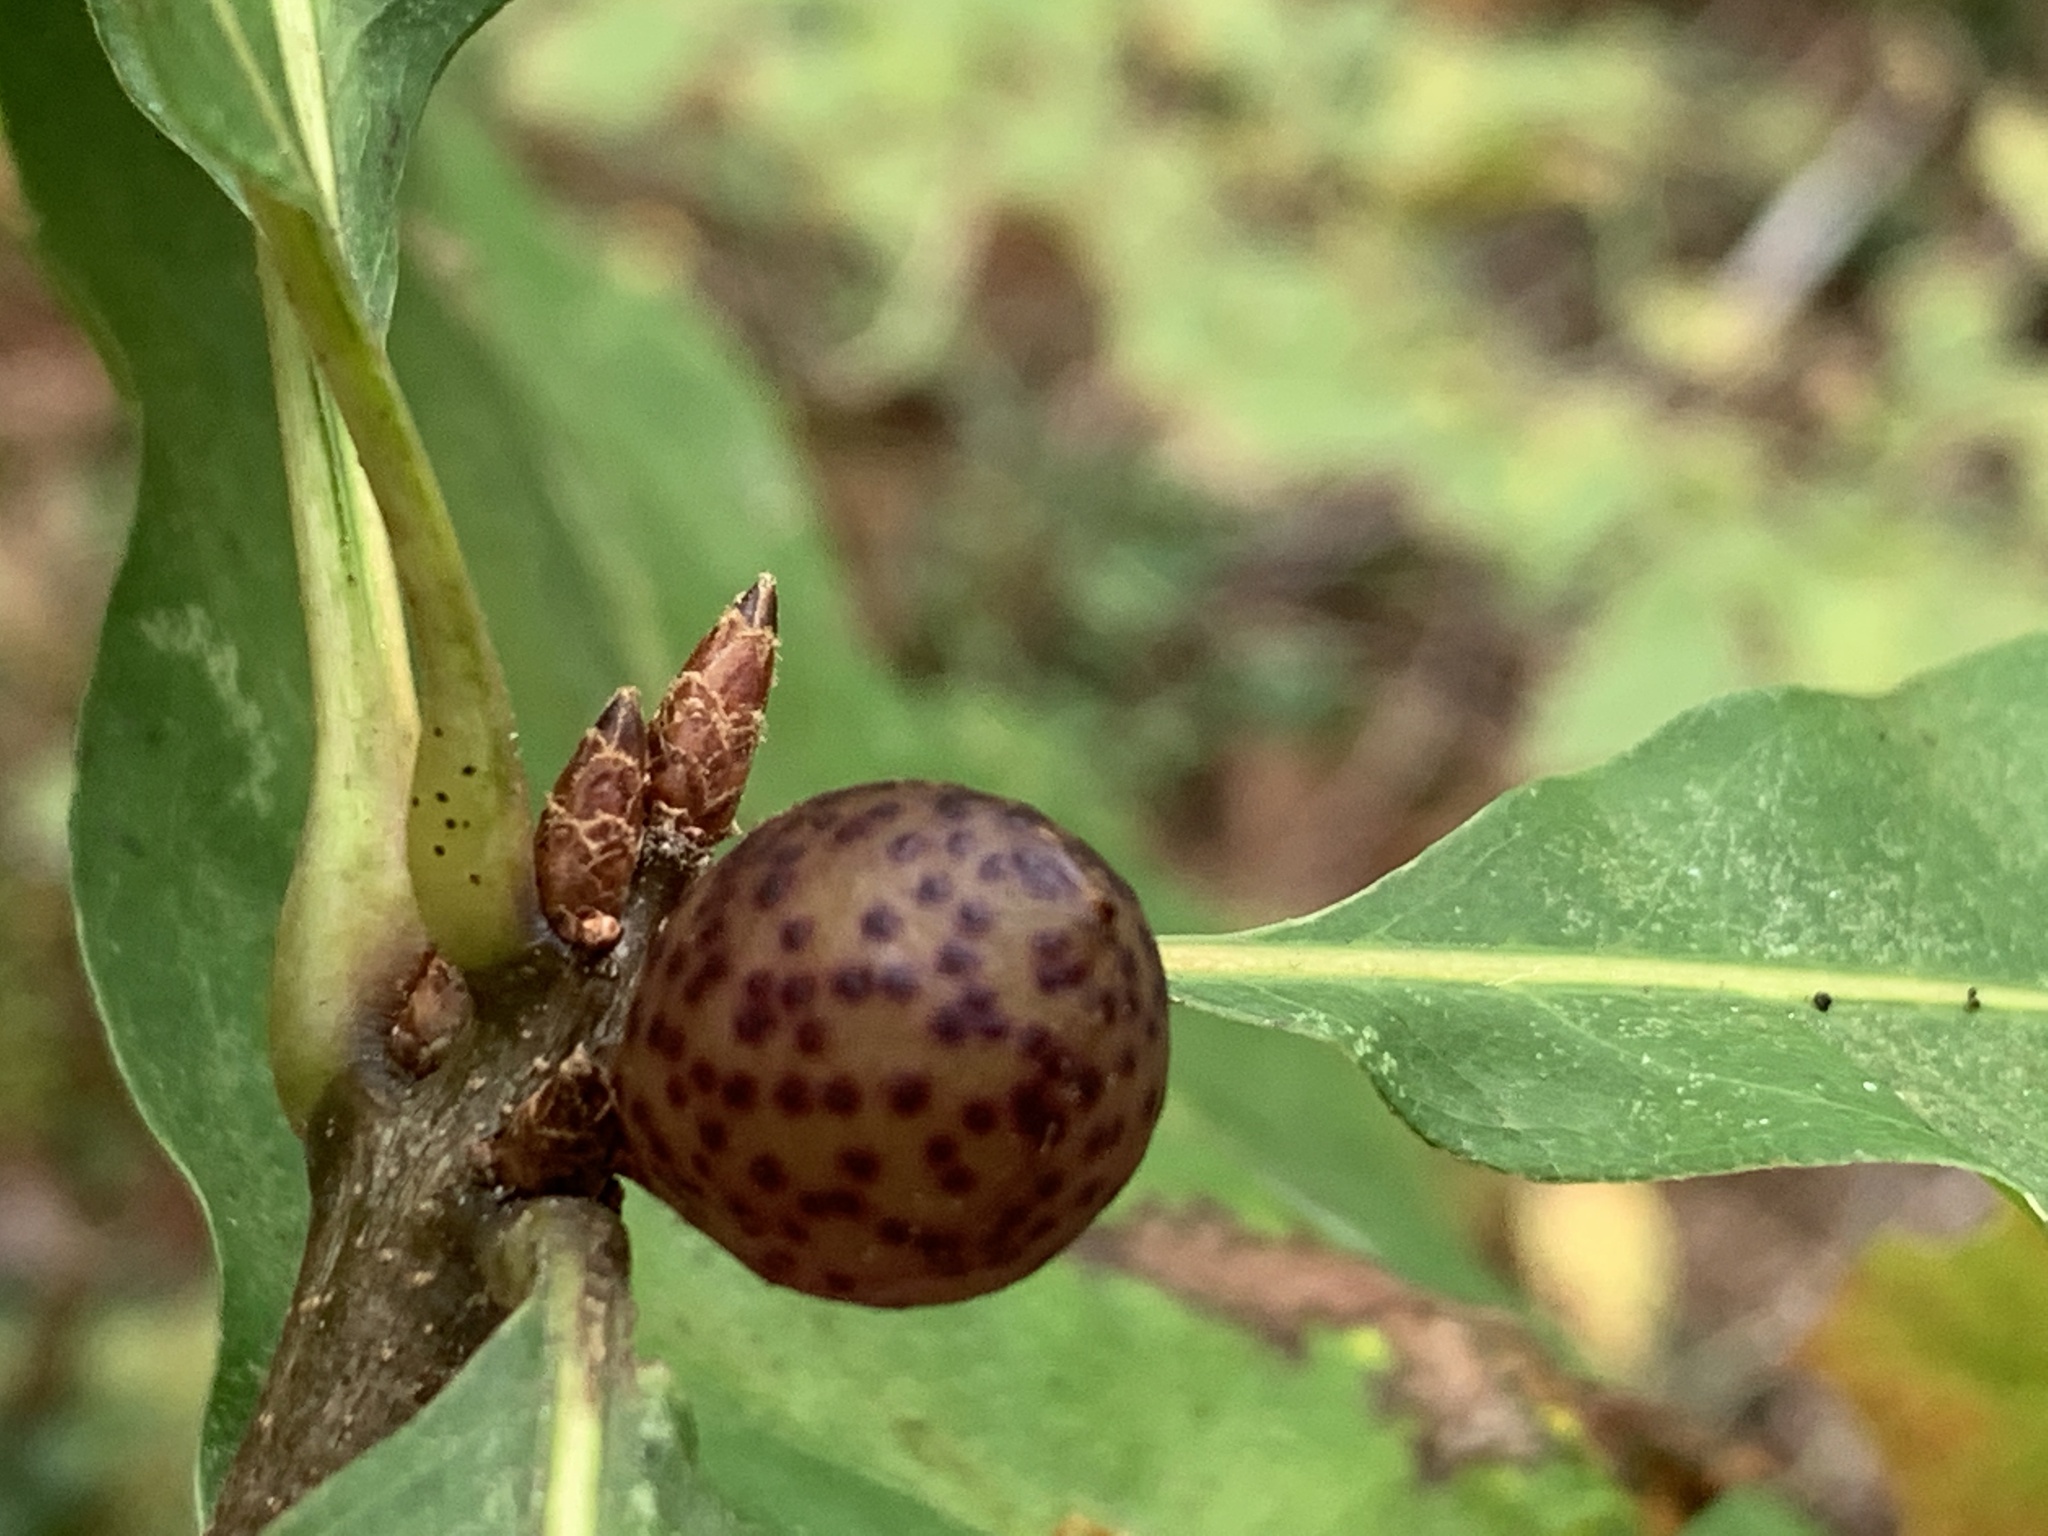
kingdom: Animalia
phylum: Arthropoda
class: Insecta
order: Hymenoptera
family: Cynipidae
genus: Amphibolips
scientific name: Amphibolips
